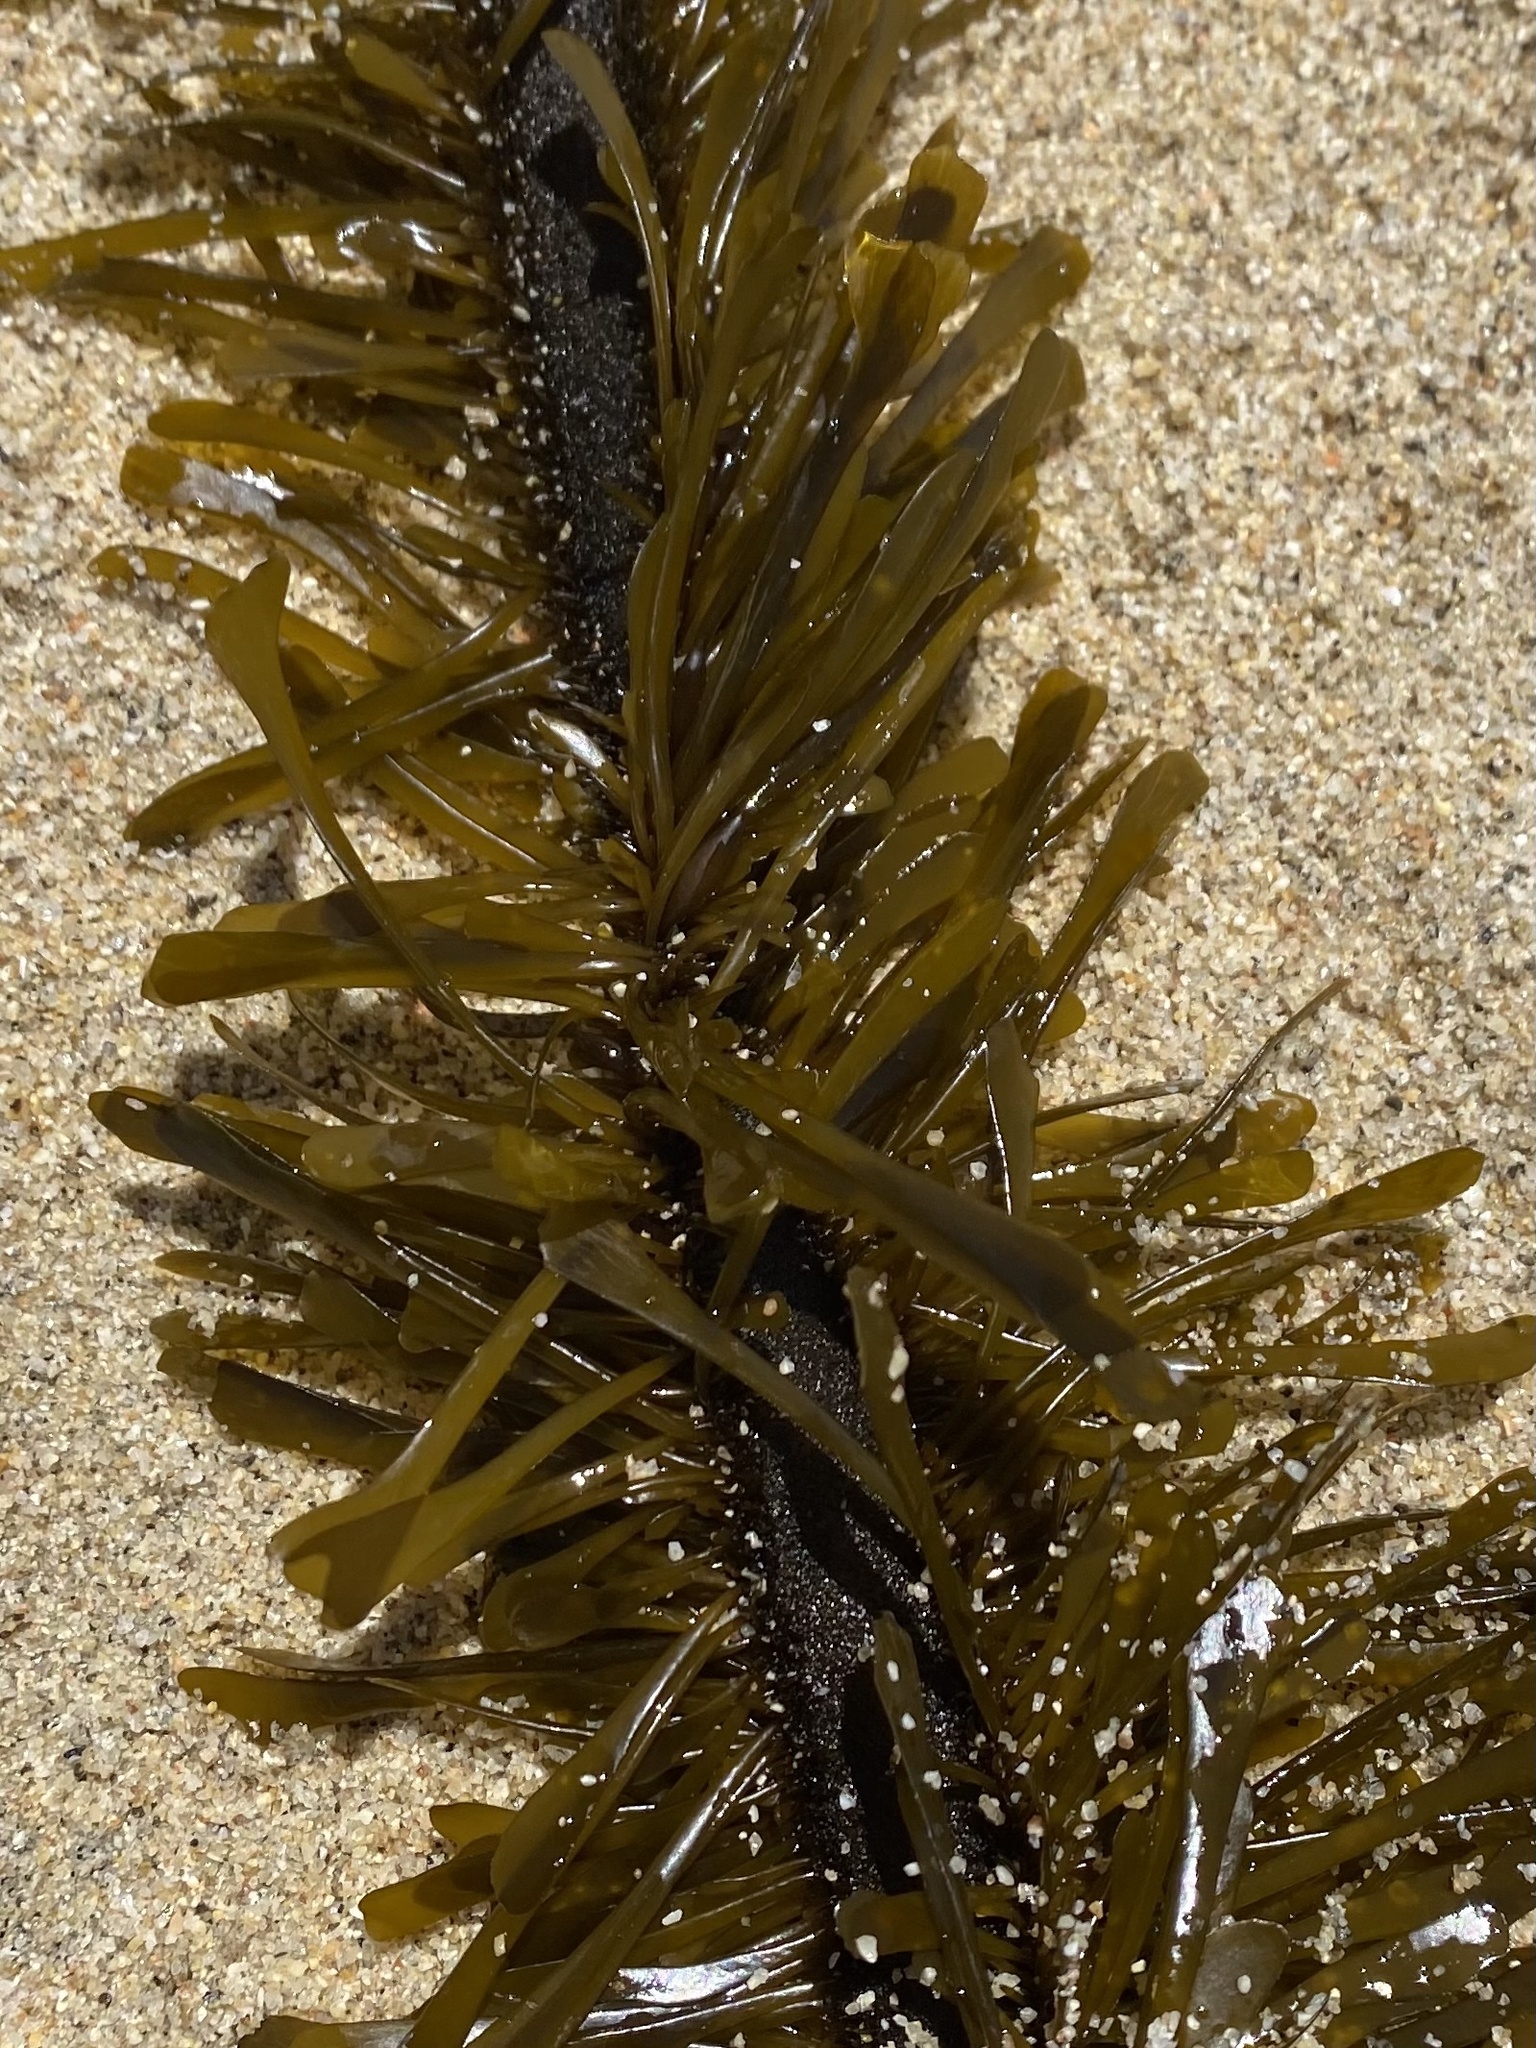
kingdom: Chromista
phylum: Ochrophyta
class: Phaeophyceae
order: Laminariales
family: Lessoniaceae
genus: Egregia
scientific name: Egregia menziesii
